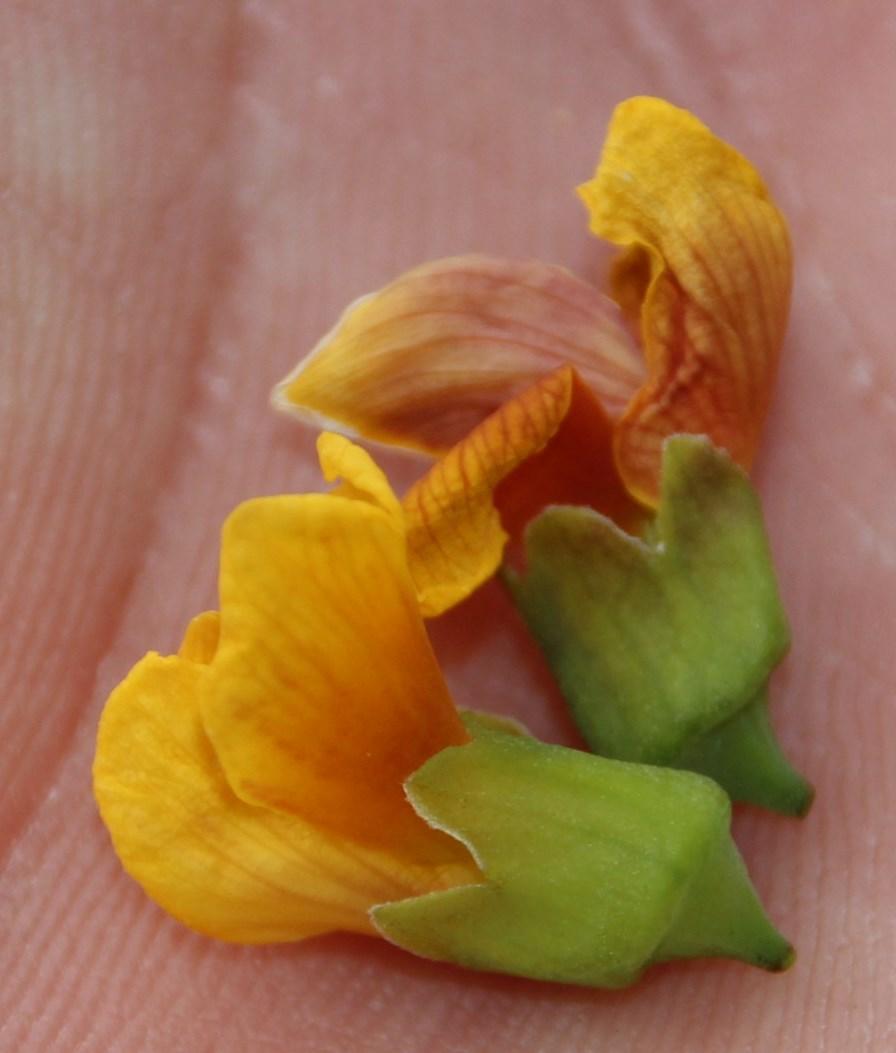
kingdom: Plantae
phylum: Tracheophyta
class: Magnoliopsida
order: Fabales
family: Fabaceae
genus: Calpurnia
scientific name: Calpurnia aurea
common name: Wild laburnum
